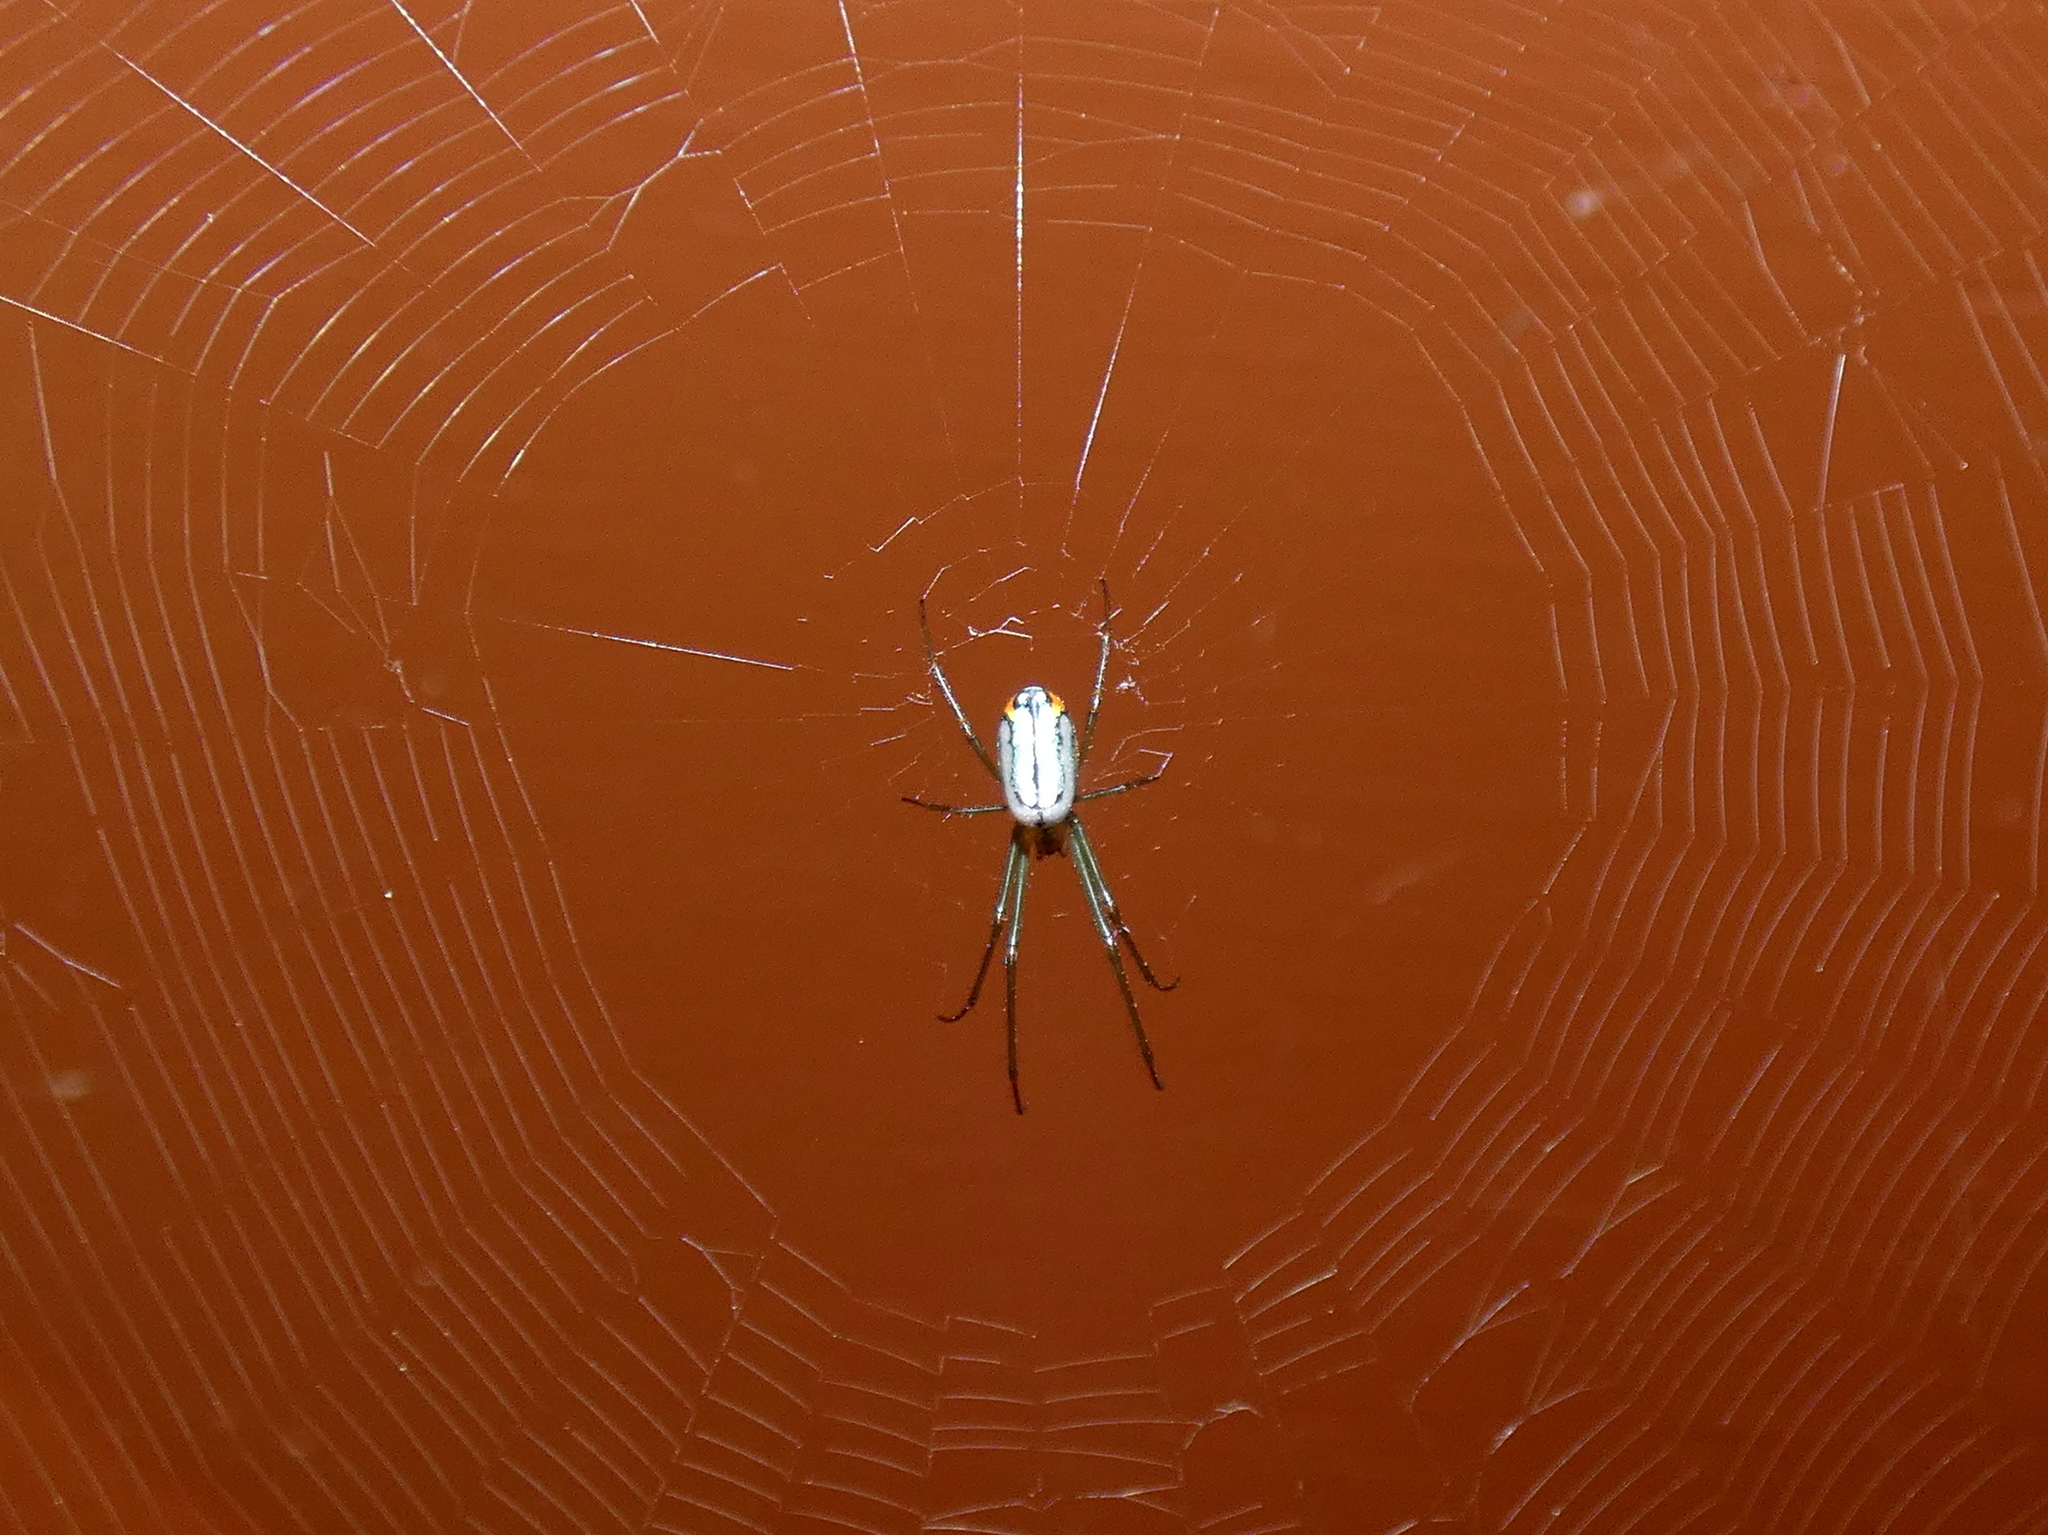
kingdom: Animalia
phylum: Arthropoda
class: Arachnida
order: Araneae
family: Tetragnathidae
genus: Leucauge
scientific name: Leucauge argyrobapta
